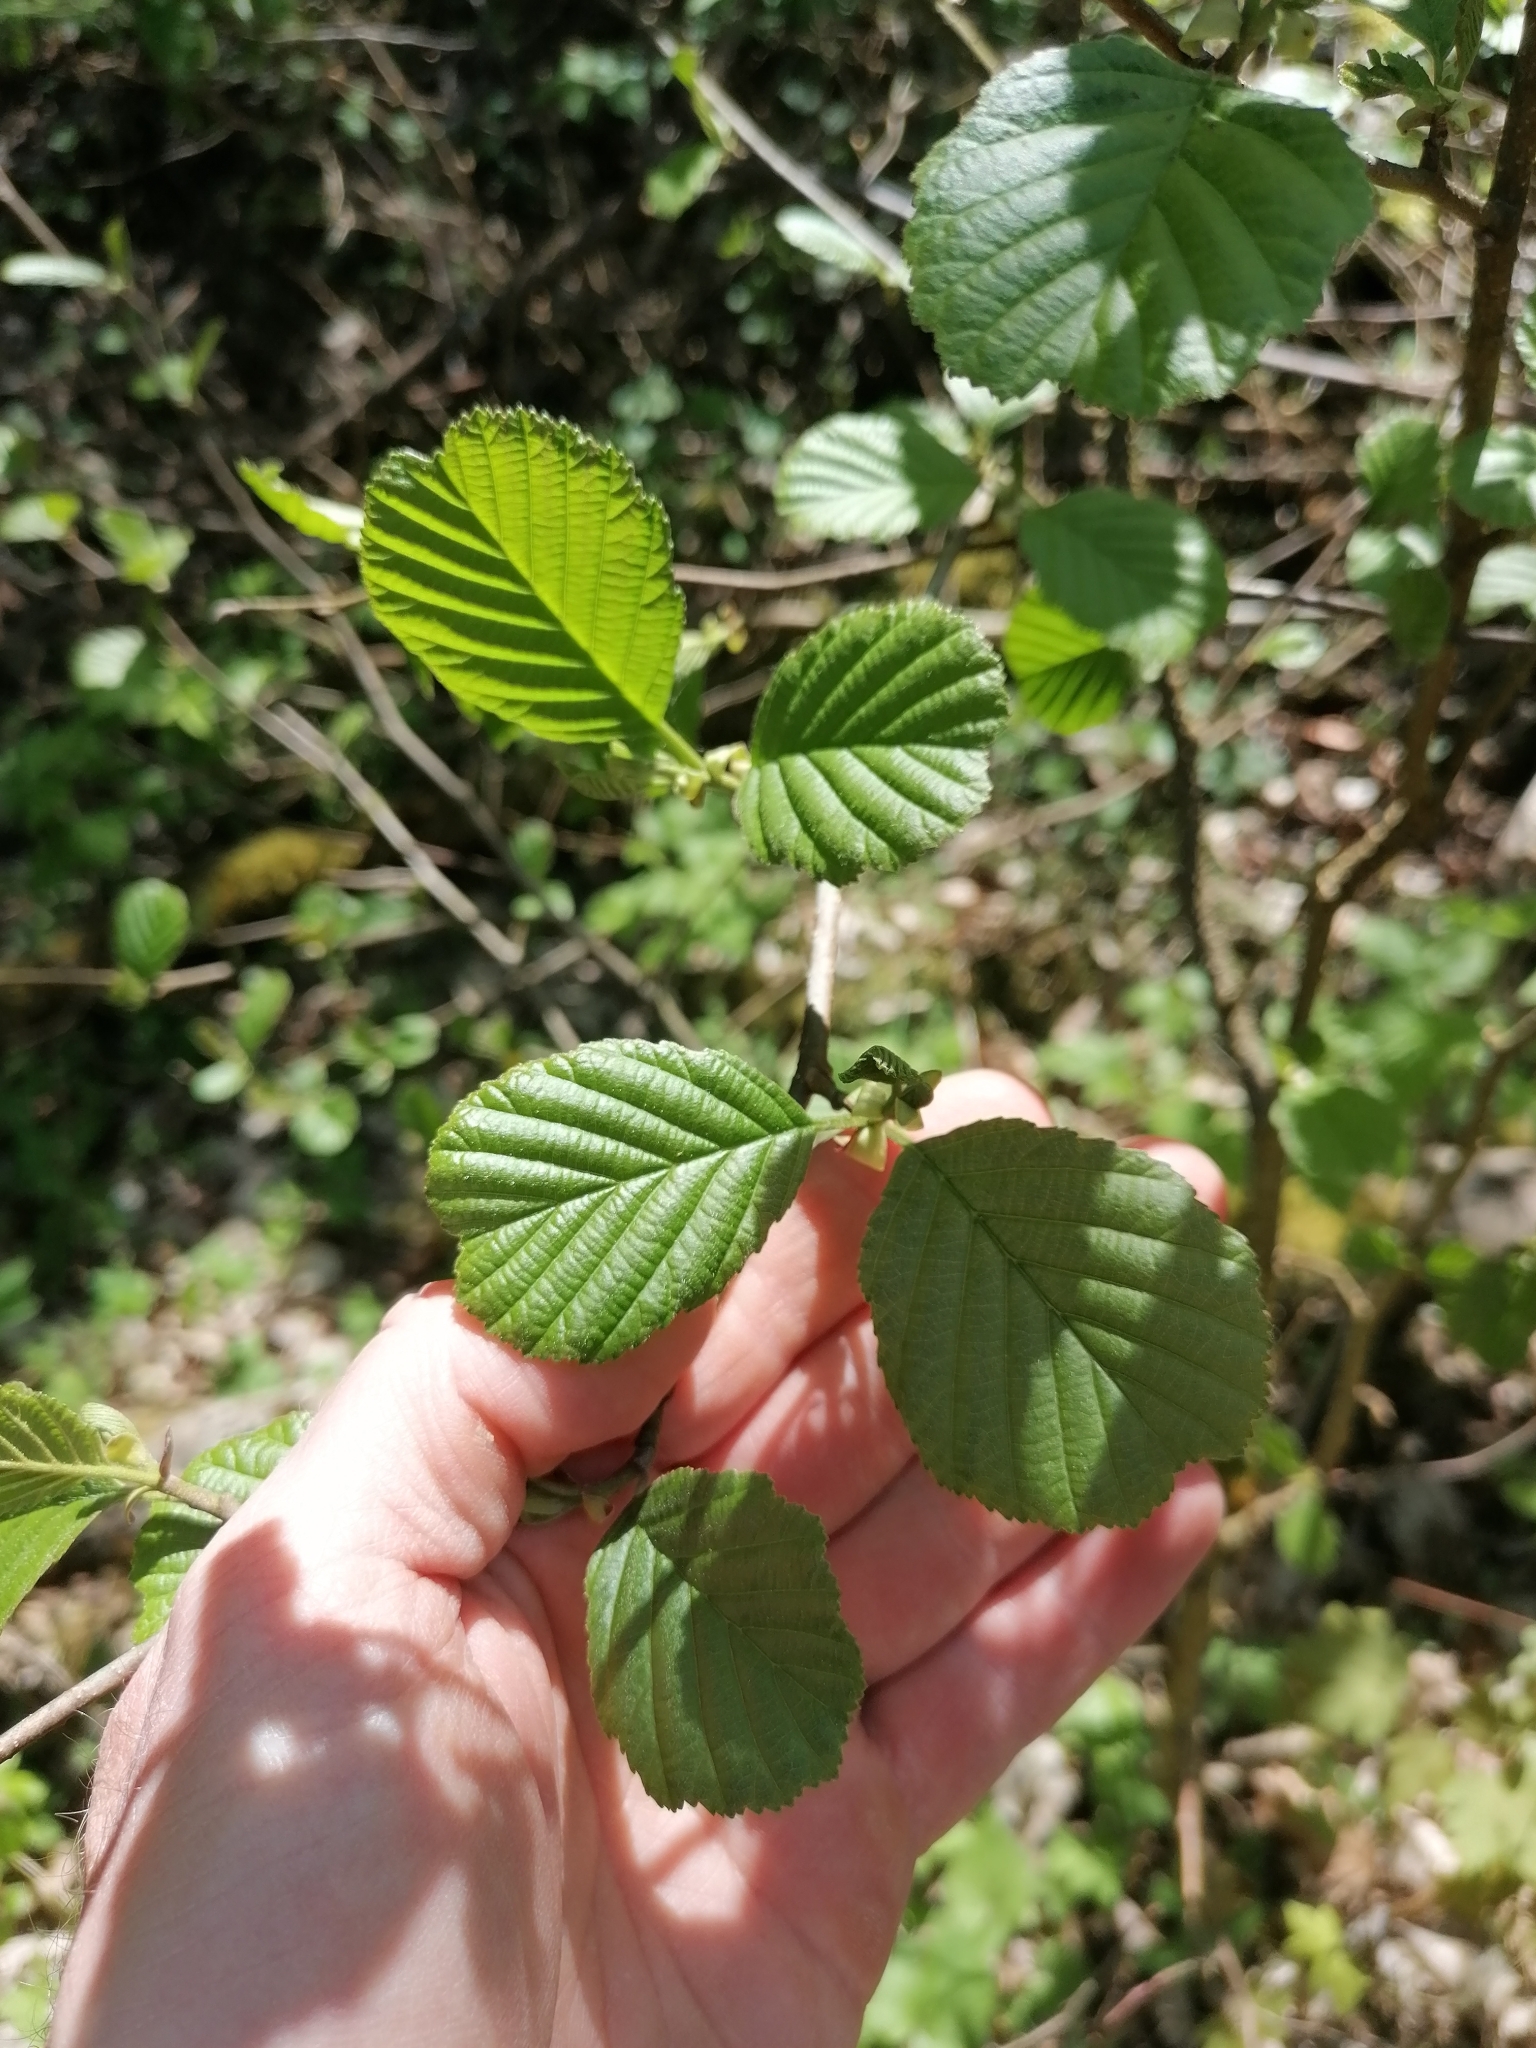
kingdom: Plantae
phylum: Tracheophyta
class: Magnoliopsida
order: Fagales
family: Betulaceae
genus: Alnus
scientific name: Alnus glutinosa
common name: Black alder
